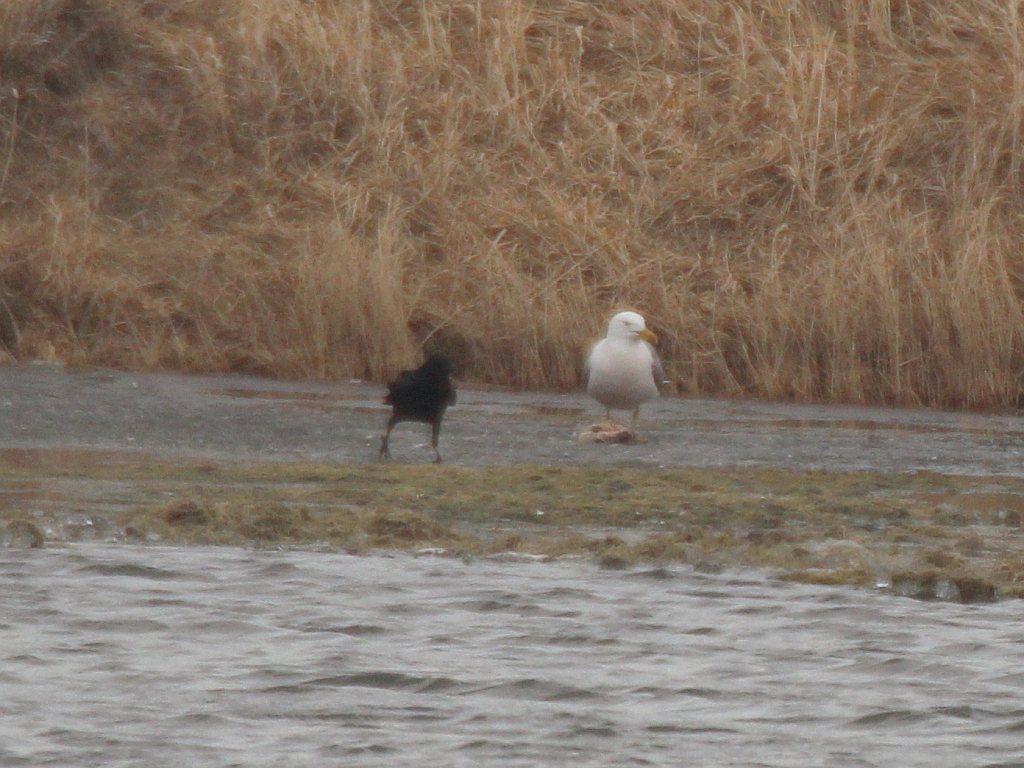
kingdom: Animalia
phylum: Chordata
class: Aves
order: Charadriiformes
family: Laridae
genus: Larus
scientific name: Larus fuscus
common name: Lesser black-backed gull
